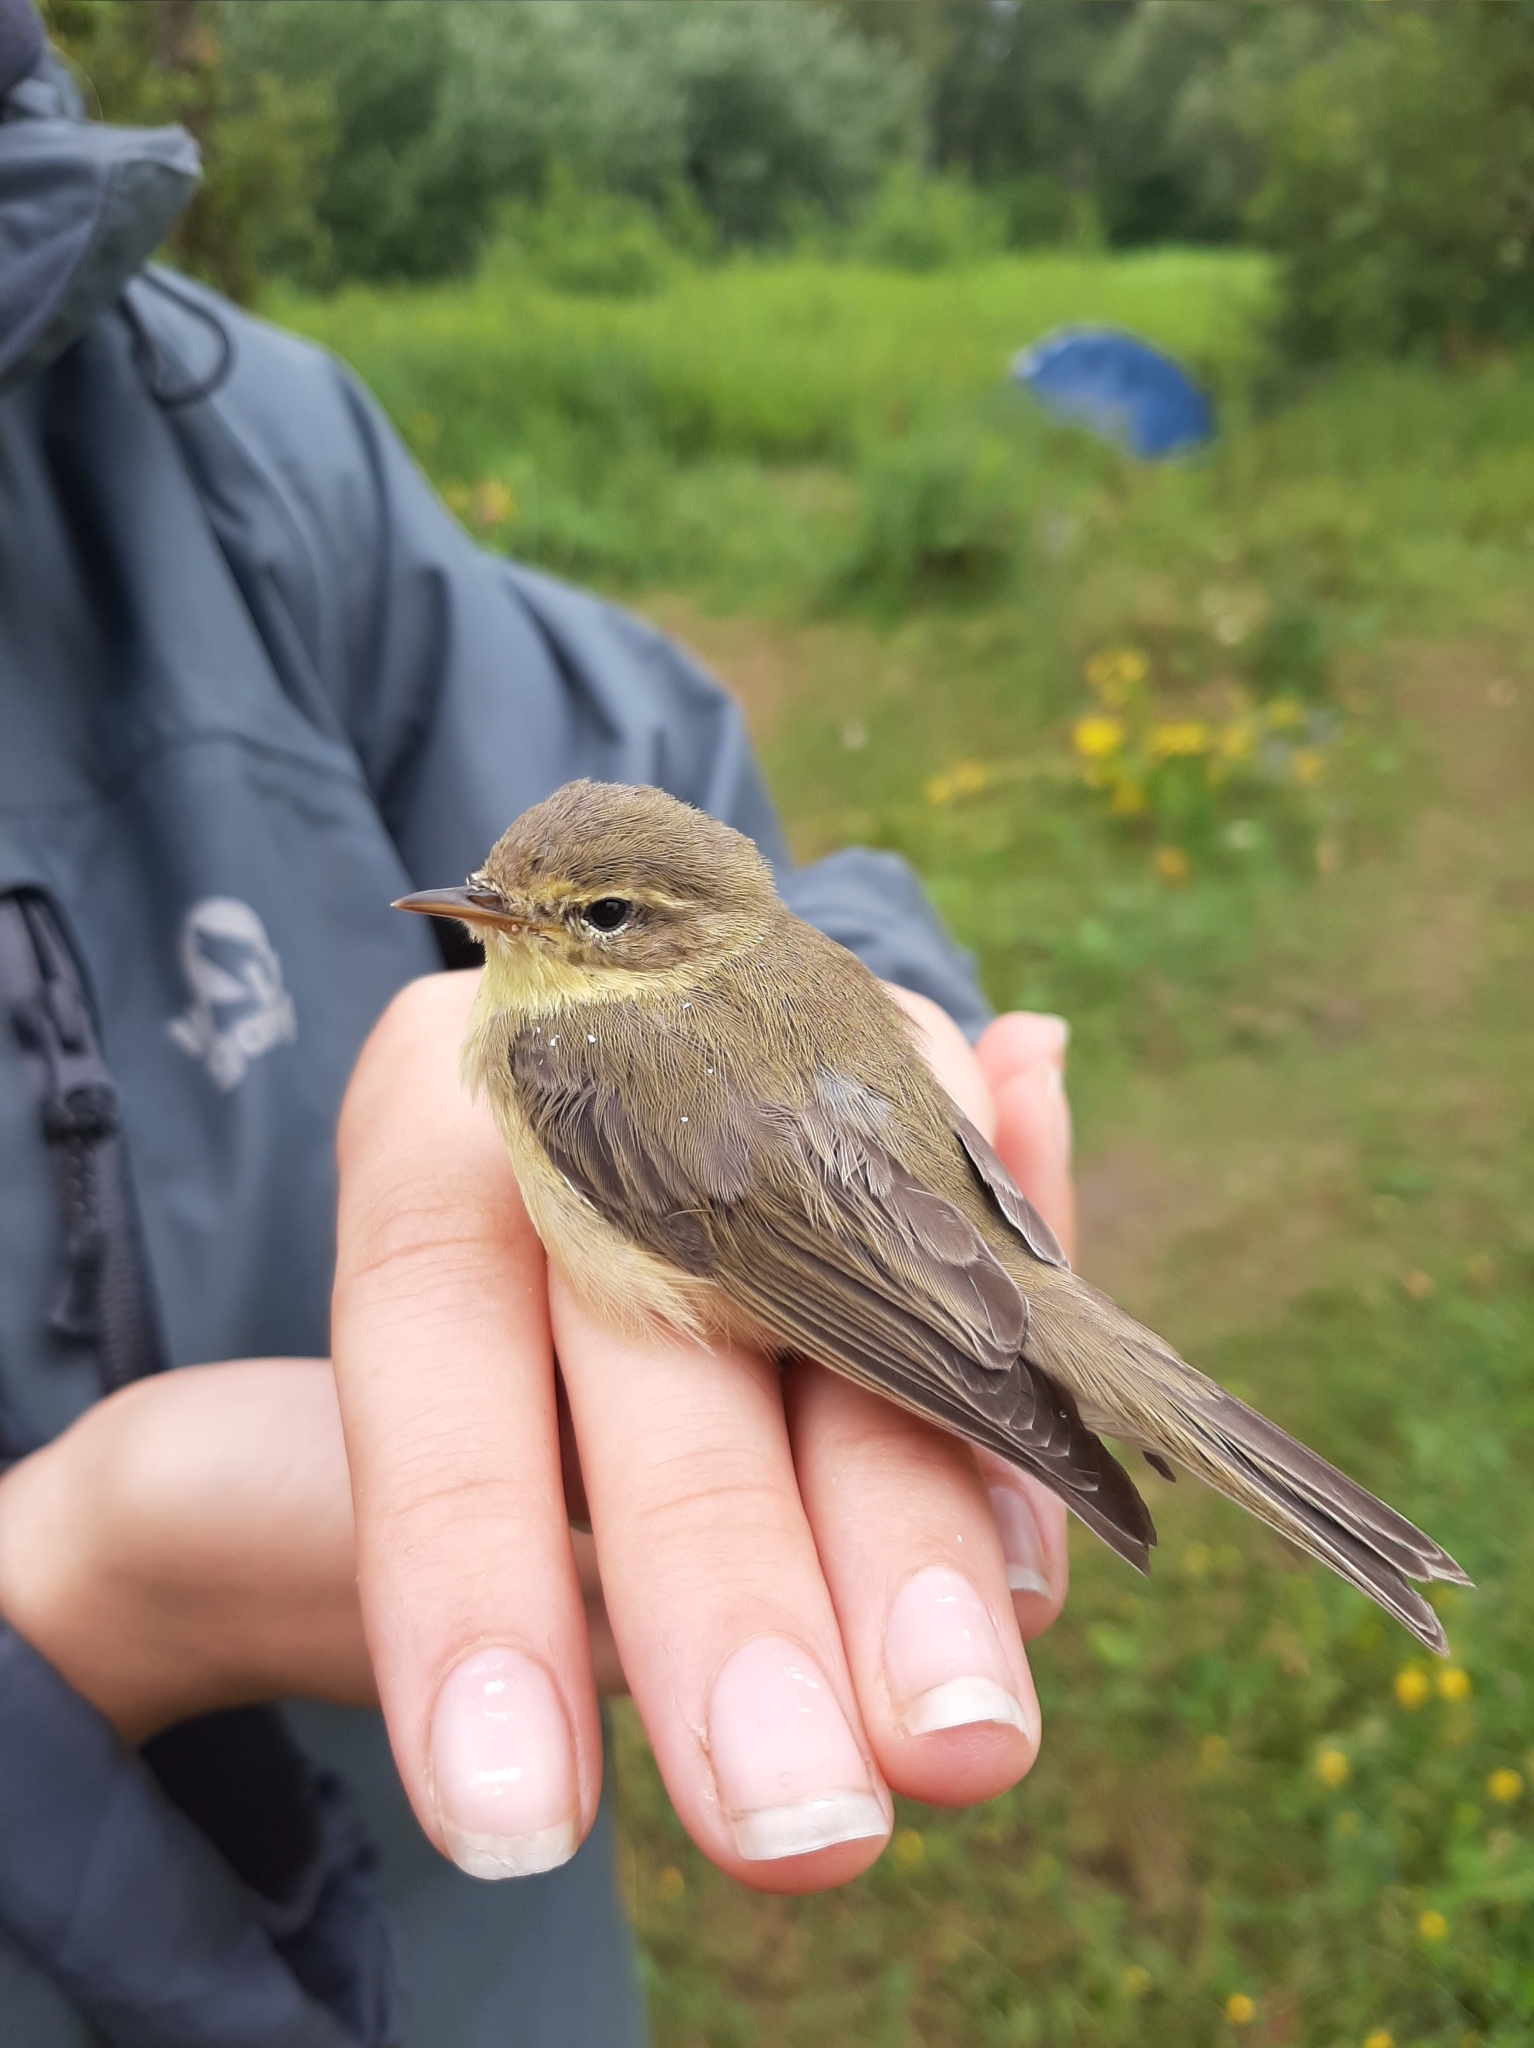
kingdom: Animalia
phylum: Chordata
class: Aves
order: Passeriformes
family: Phylloscopidae
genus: Phylloscopus
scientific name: Phylloscopus trochilus
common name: Willow warbler
